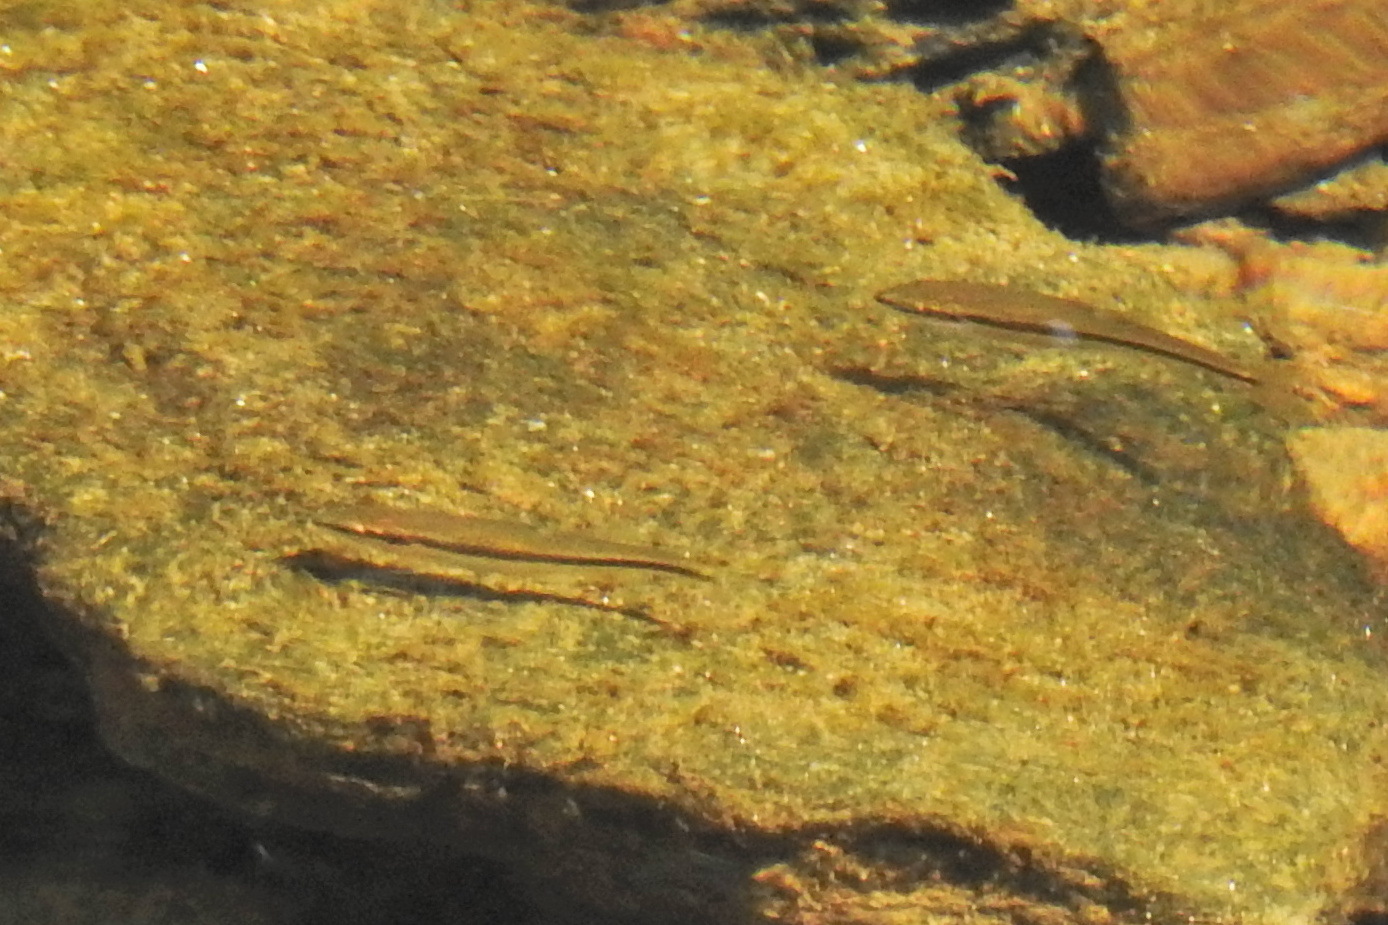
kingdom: Animalia
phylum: Chordata
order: Cypriniformes
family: Cyprinidae
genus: Rhinichthys
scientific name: Rhinichthys atratulus
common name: Eastern blacknose dace
